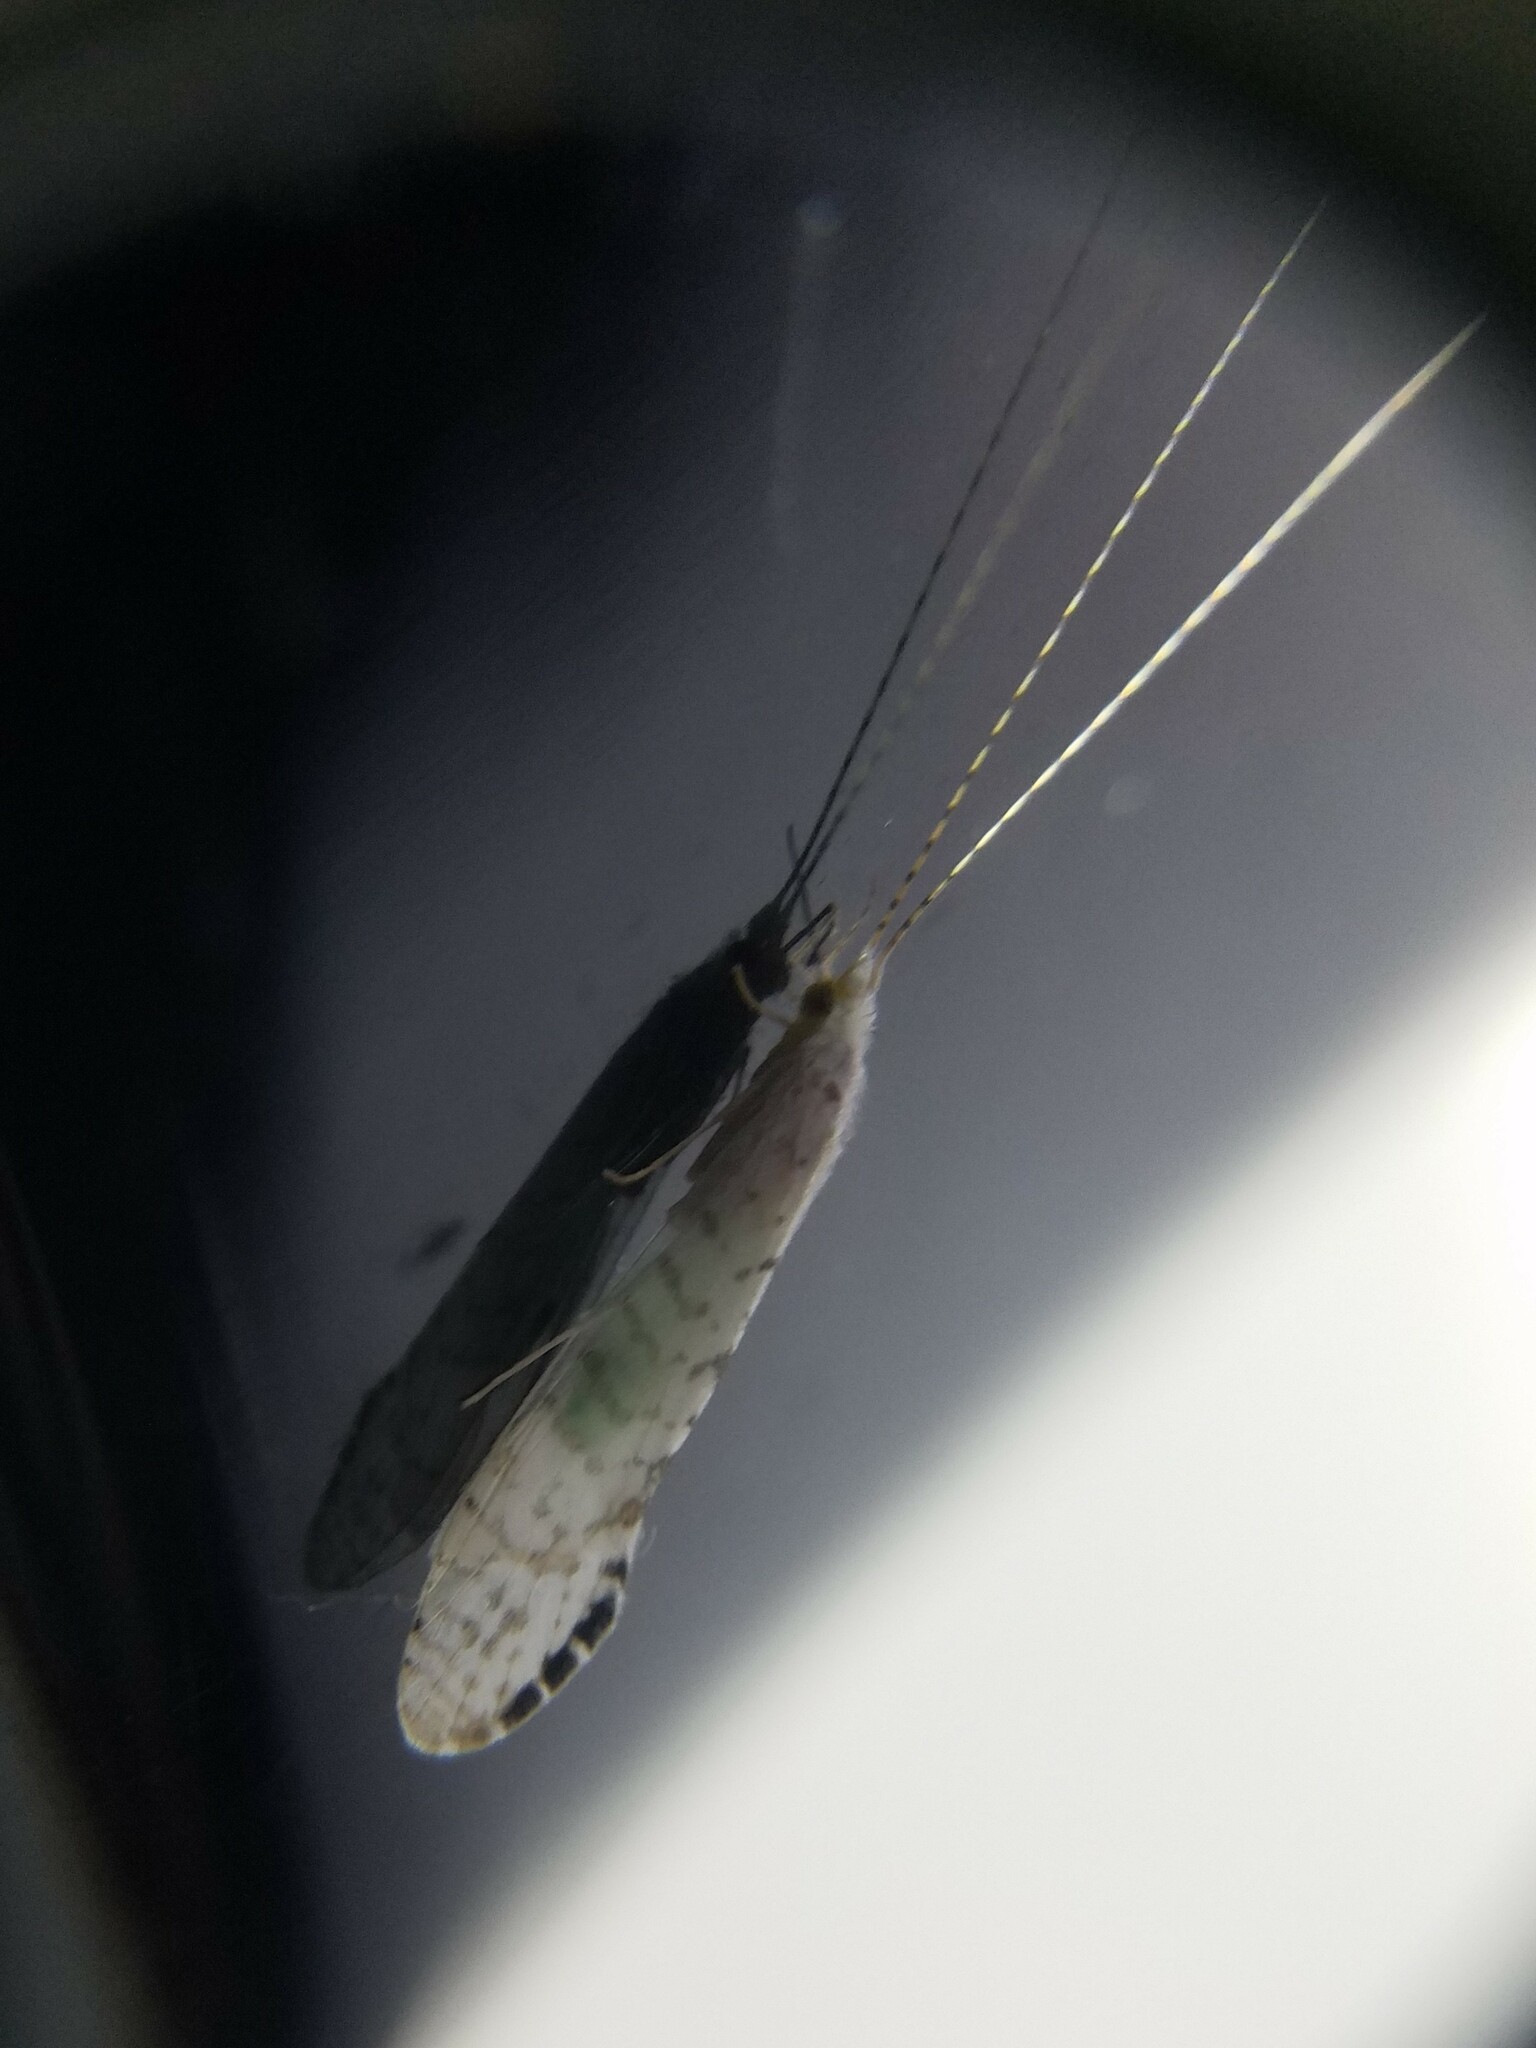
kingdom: Animalia
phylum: Arthropoda
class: Insecta
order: Trichoptera
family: Leptoceridae
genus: Nectopsyche
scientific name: Nectopsyche candida
